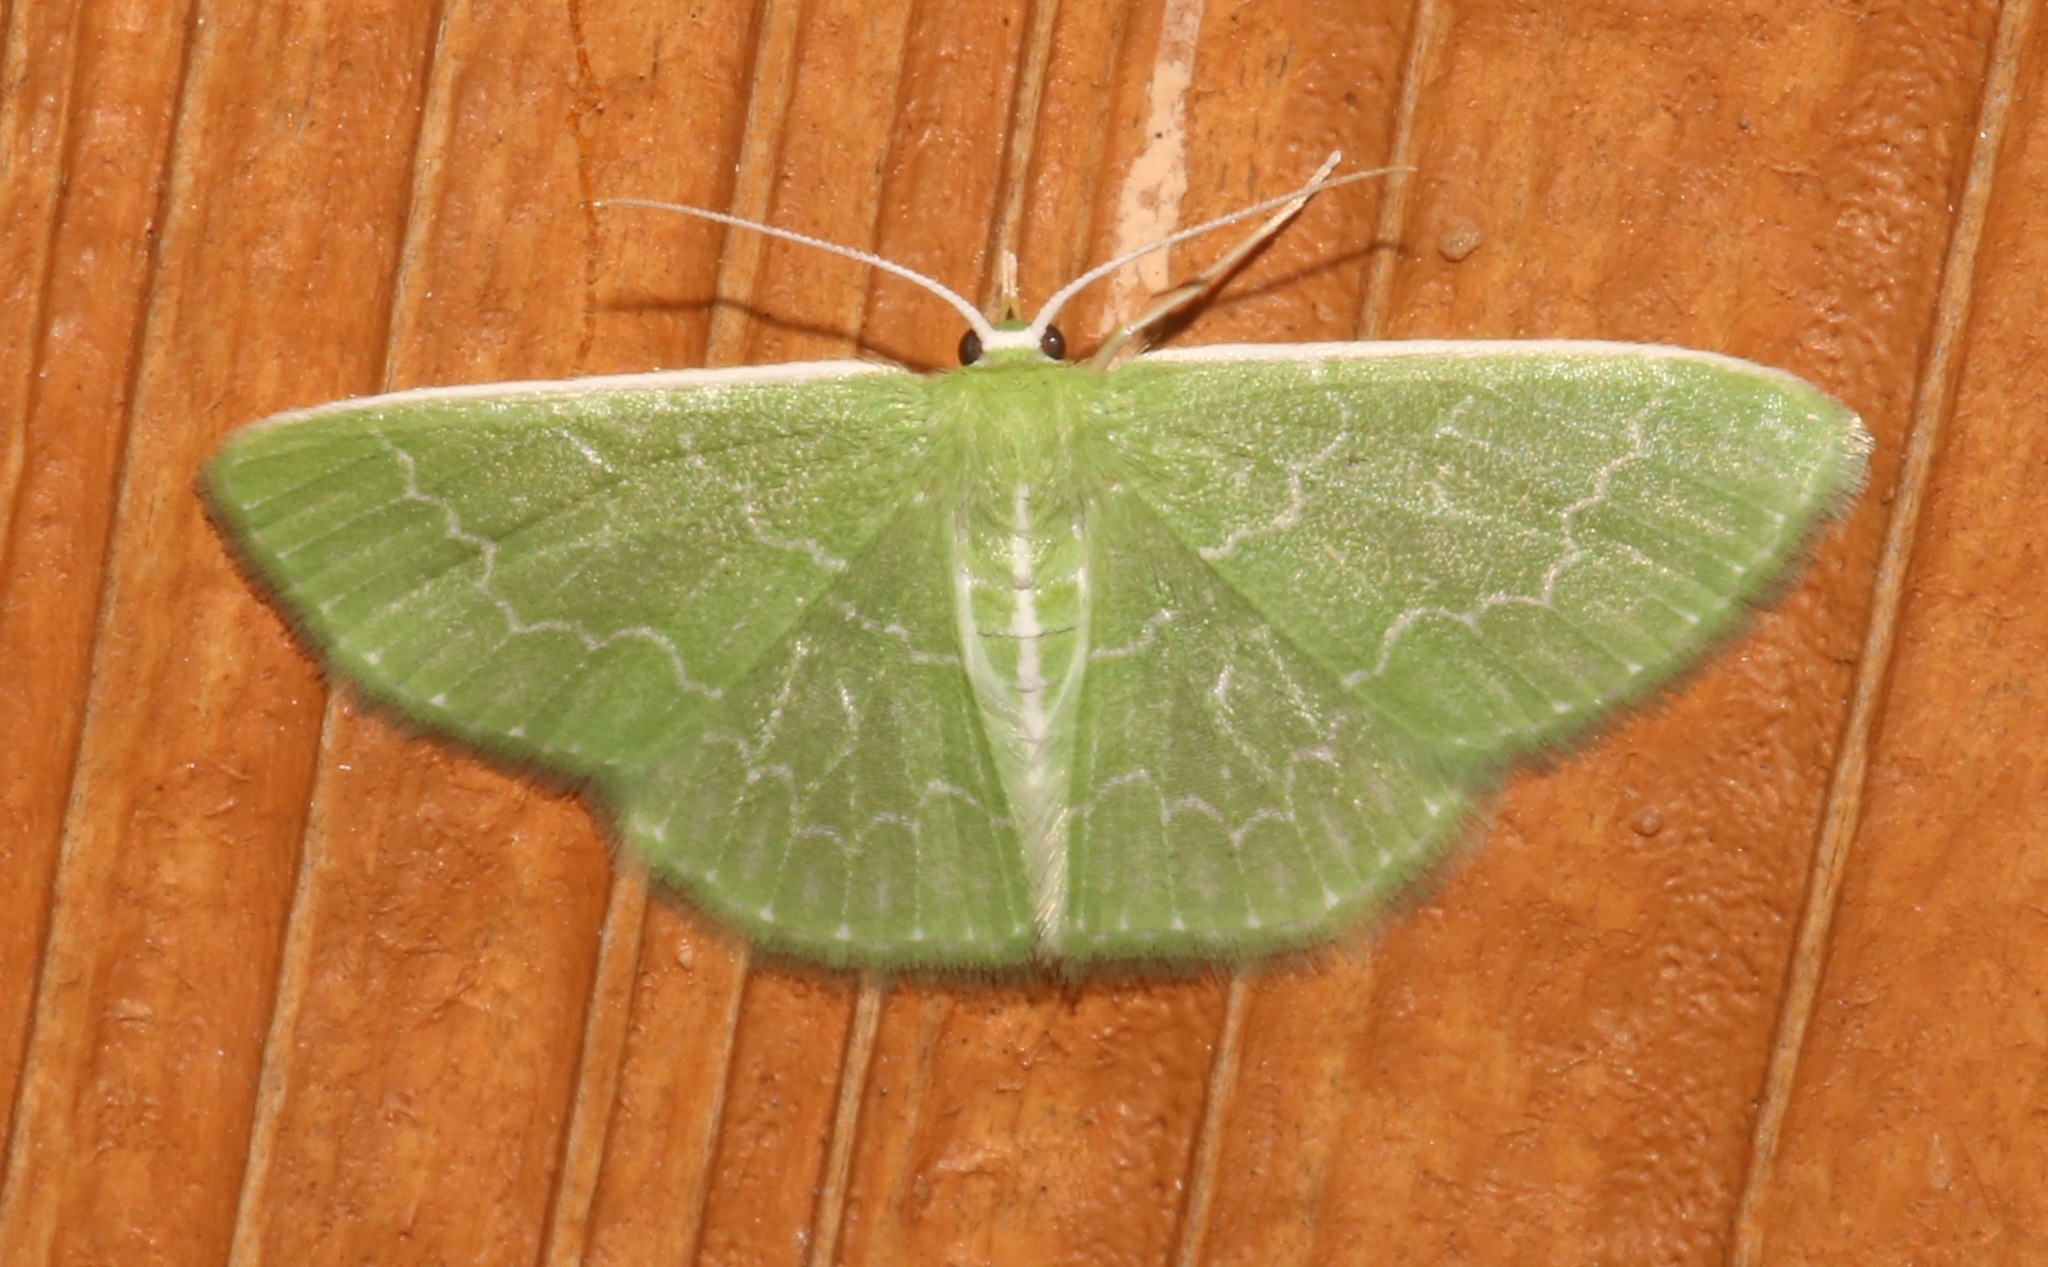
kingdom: Animalia
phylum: Arthropoda
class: Insecta
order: Lepidoptera
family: Geometridae
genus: Synchlora
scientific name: Synchlora frondaria
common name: Southern emerald
